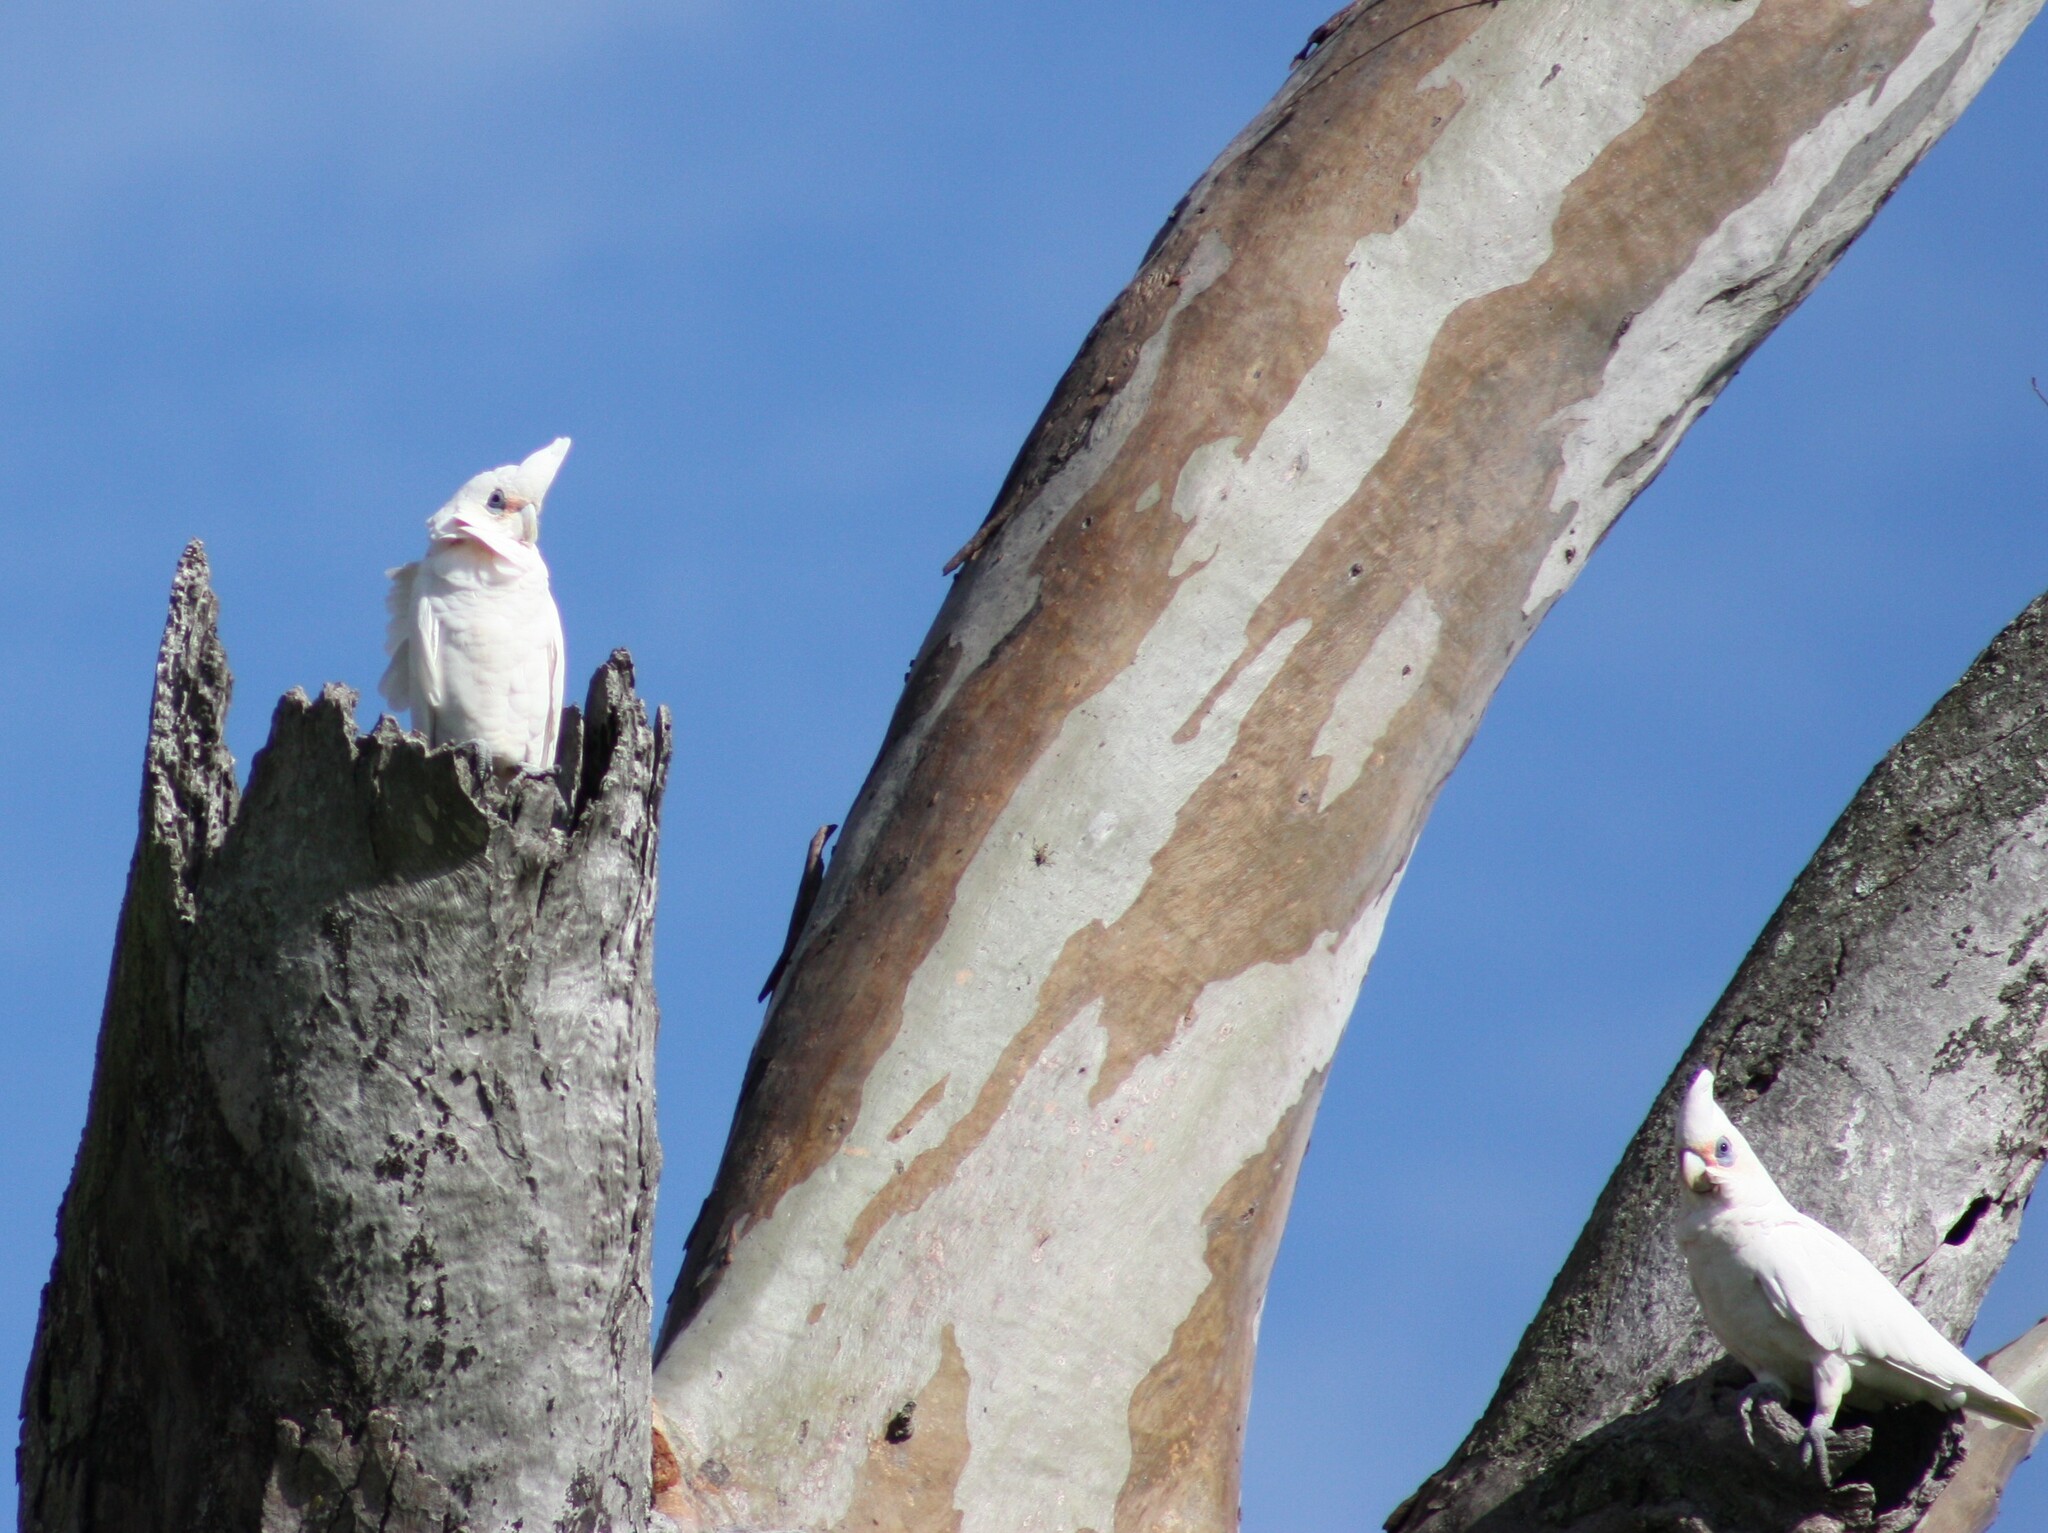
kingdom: Animalia
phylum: Chordata
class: Aves
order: Psittaciformes
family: Psittacidae
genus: Cacatua
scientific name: Cacatua sanguinea
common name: Little corella
